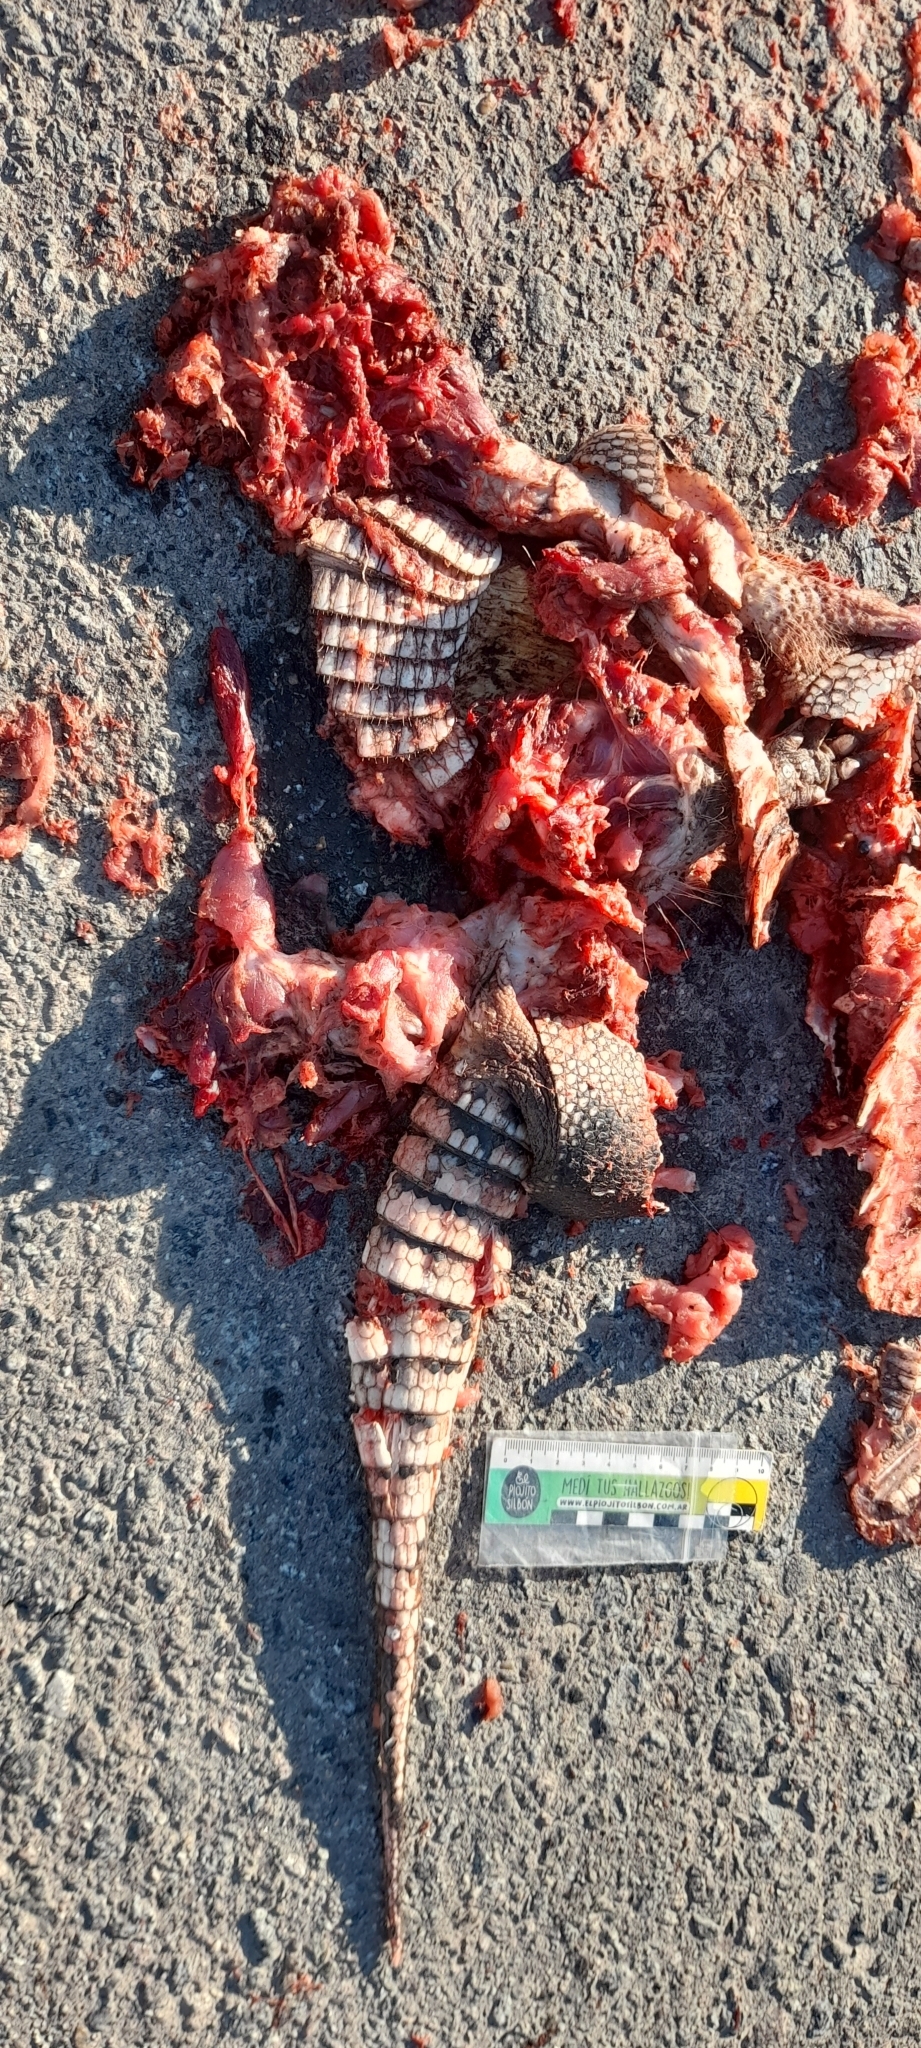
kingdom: Animalia
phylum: Chordata
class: Mammalia
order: Cingulata
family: Dasypodidae
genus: Dasypus
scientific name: Dasypus novemcinctus
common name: Nine-banded armadillo
